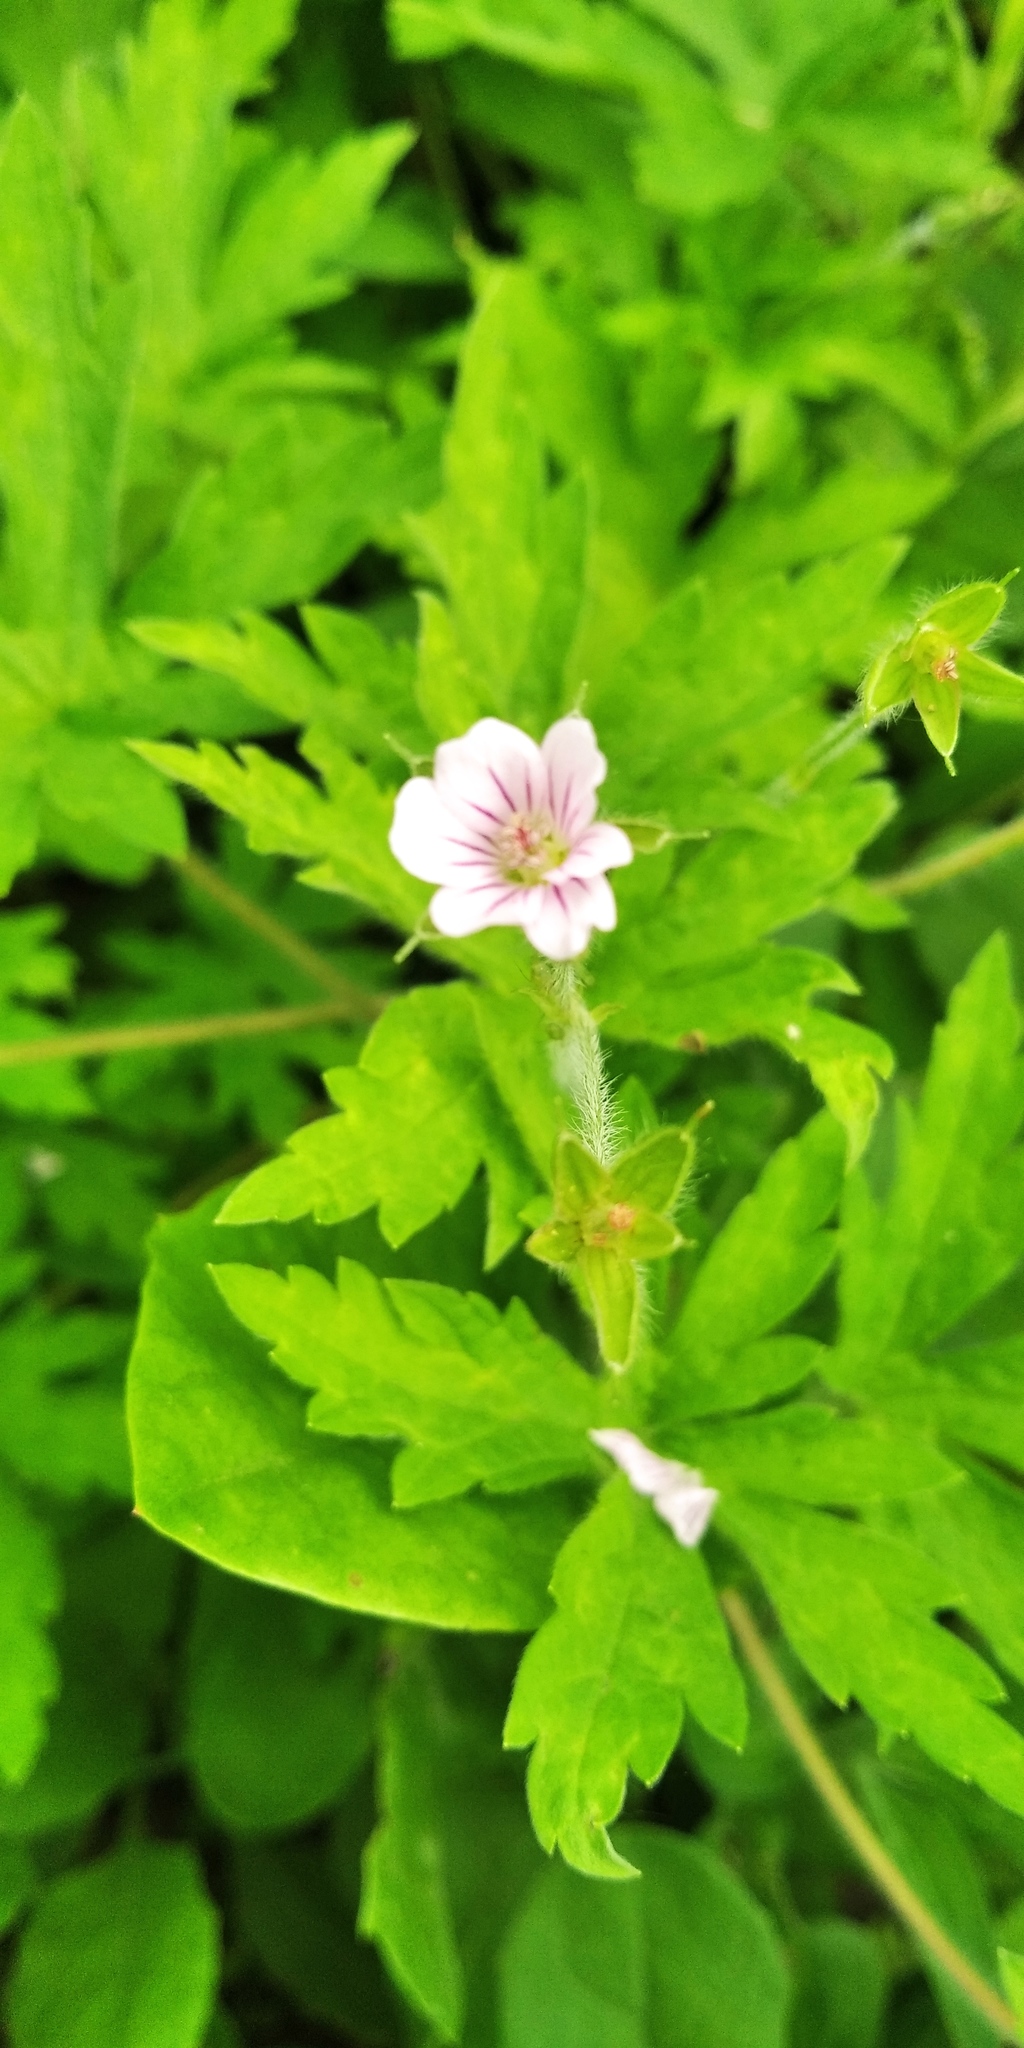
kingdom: Plantae
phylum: Tracheophyta
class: Magnoliopsida
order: Geraniales
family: Geraniaceae
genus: Geranium
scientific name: Geranium sibiricum
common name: Siberian crane's-bill
